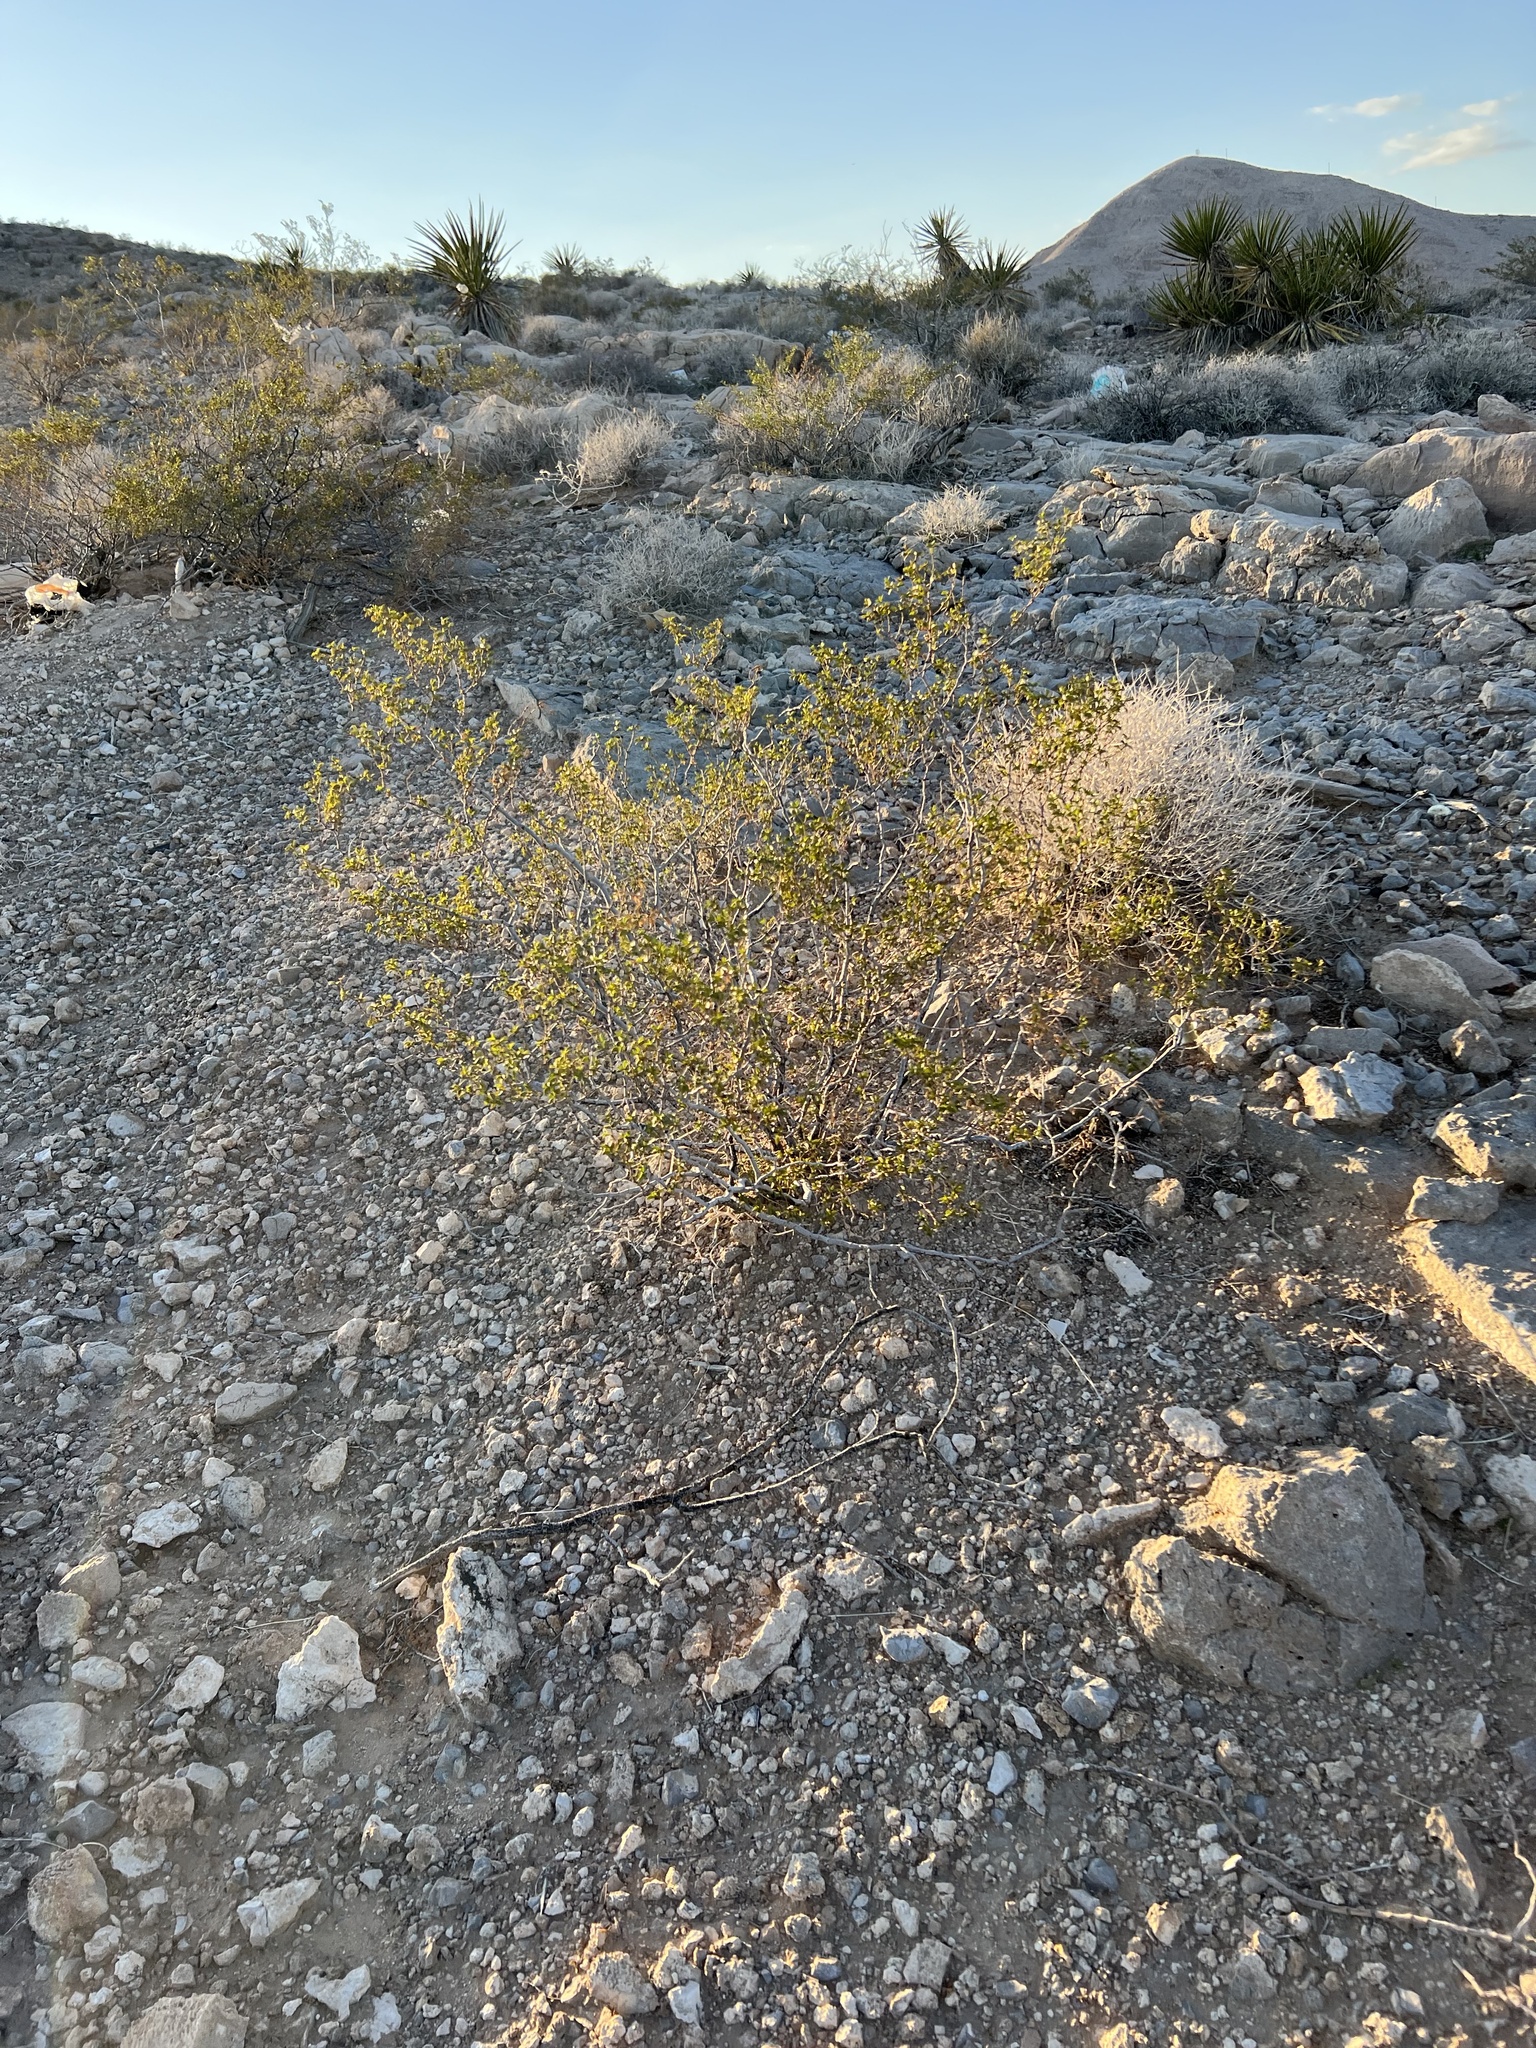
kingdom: Plantae
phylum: Tracheophyta
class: Magnoliopsida
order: Zygophyllales
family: Zygophyllaceae
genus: Larrea
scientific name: Larrea tridentata
